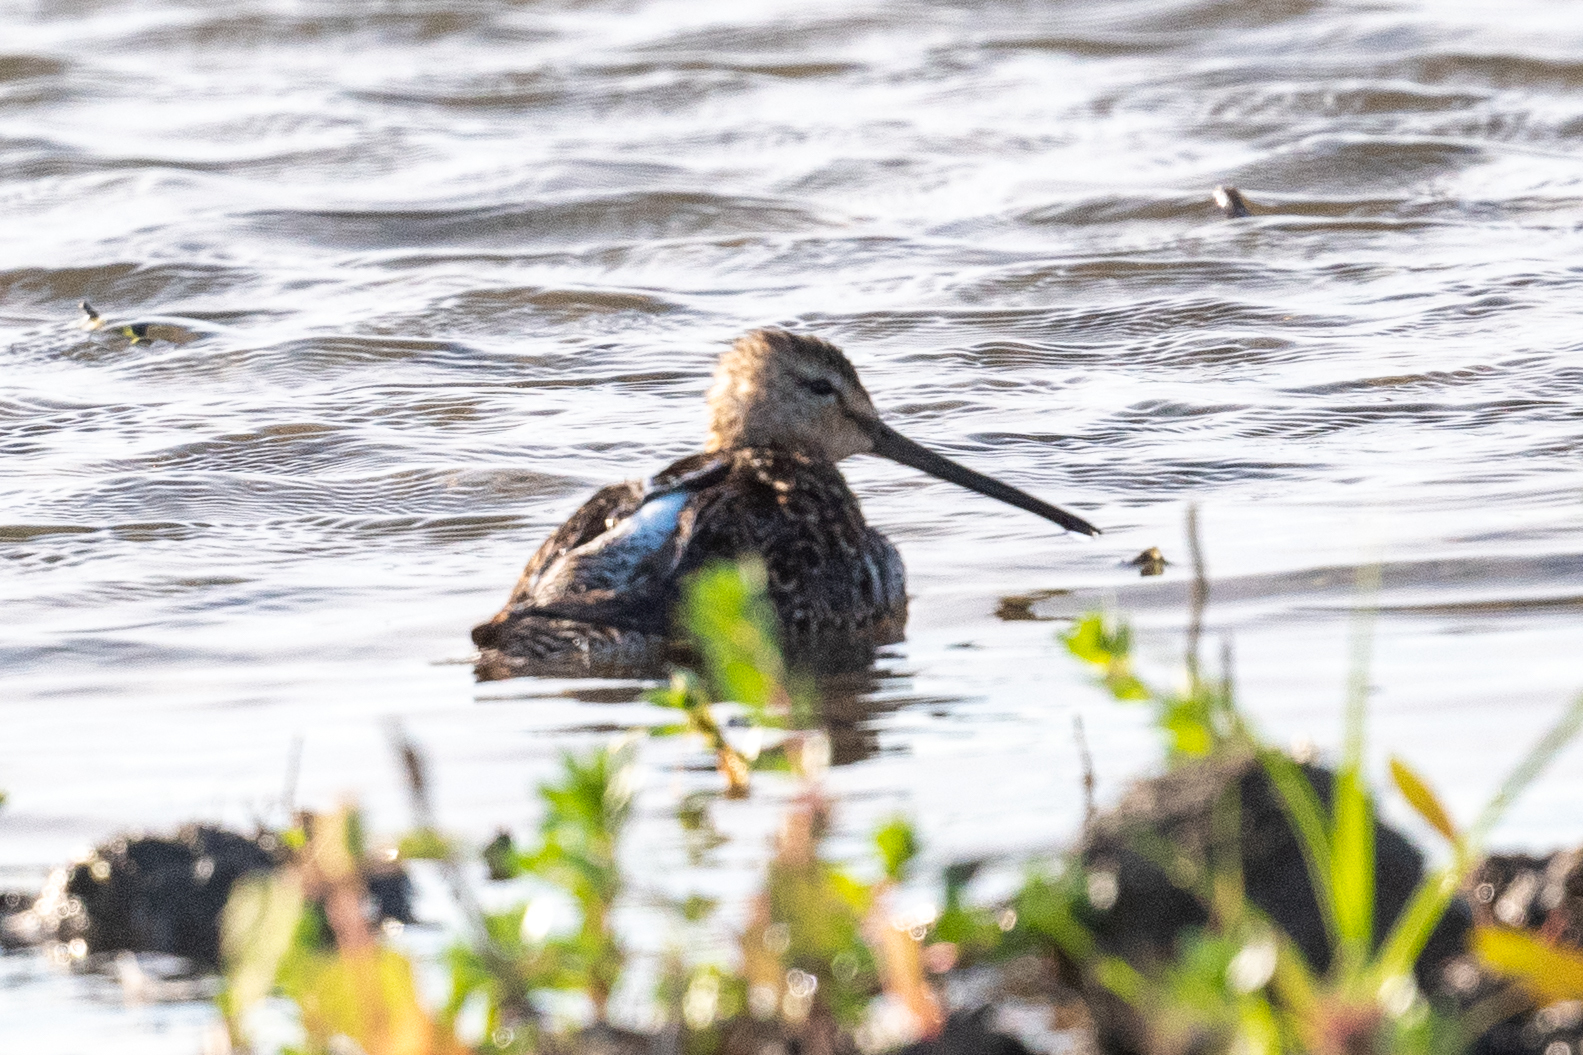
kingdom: Animalia
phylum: Chordata
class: Aves
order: Charadriiformes
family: Scolopacidae
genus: Limnodromus
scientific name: Limnodromus scolopaceus
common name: Long-billed dowitcher
